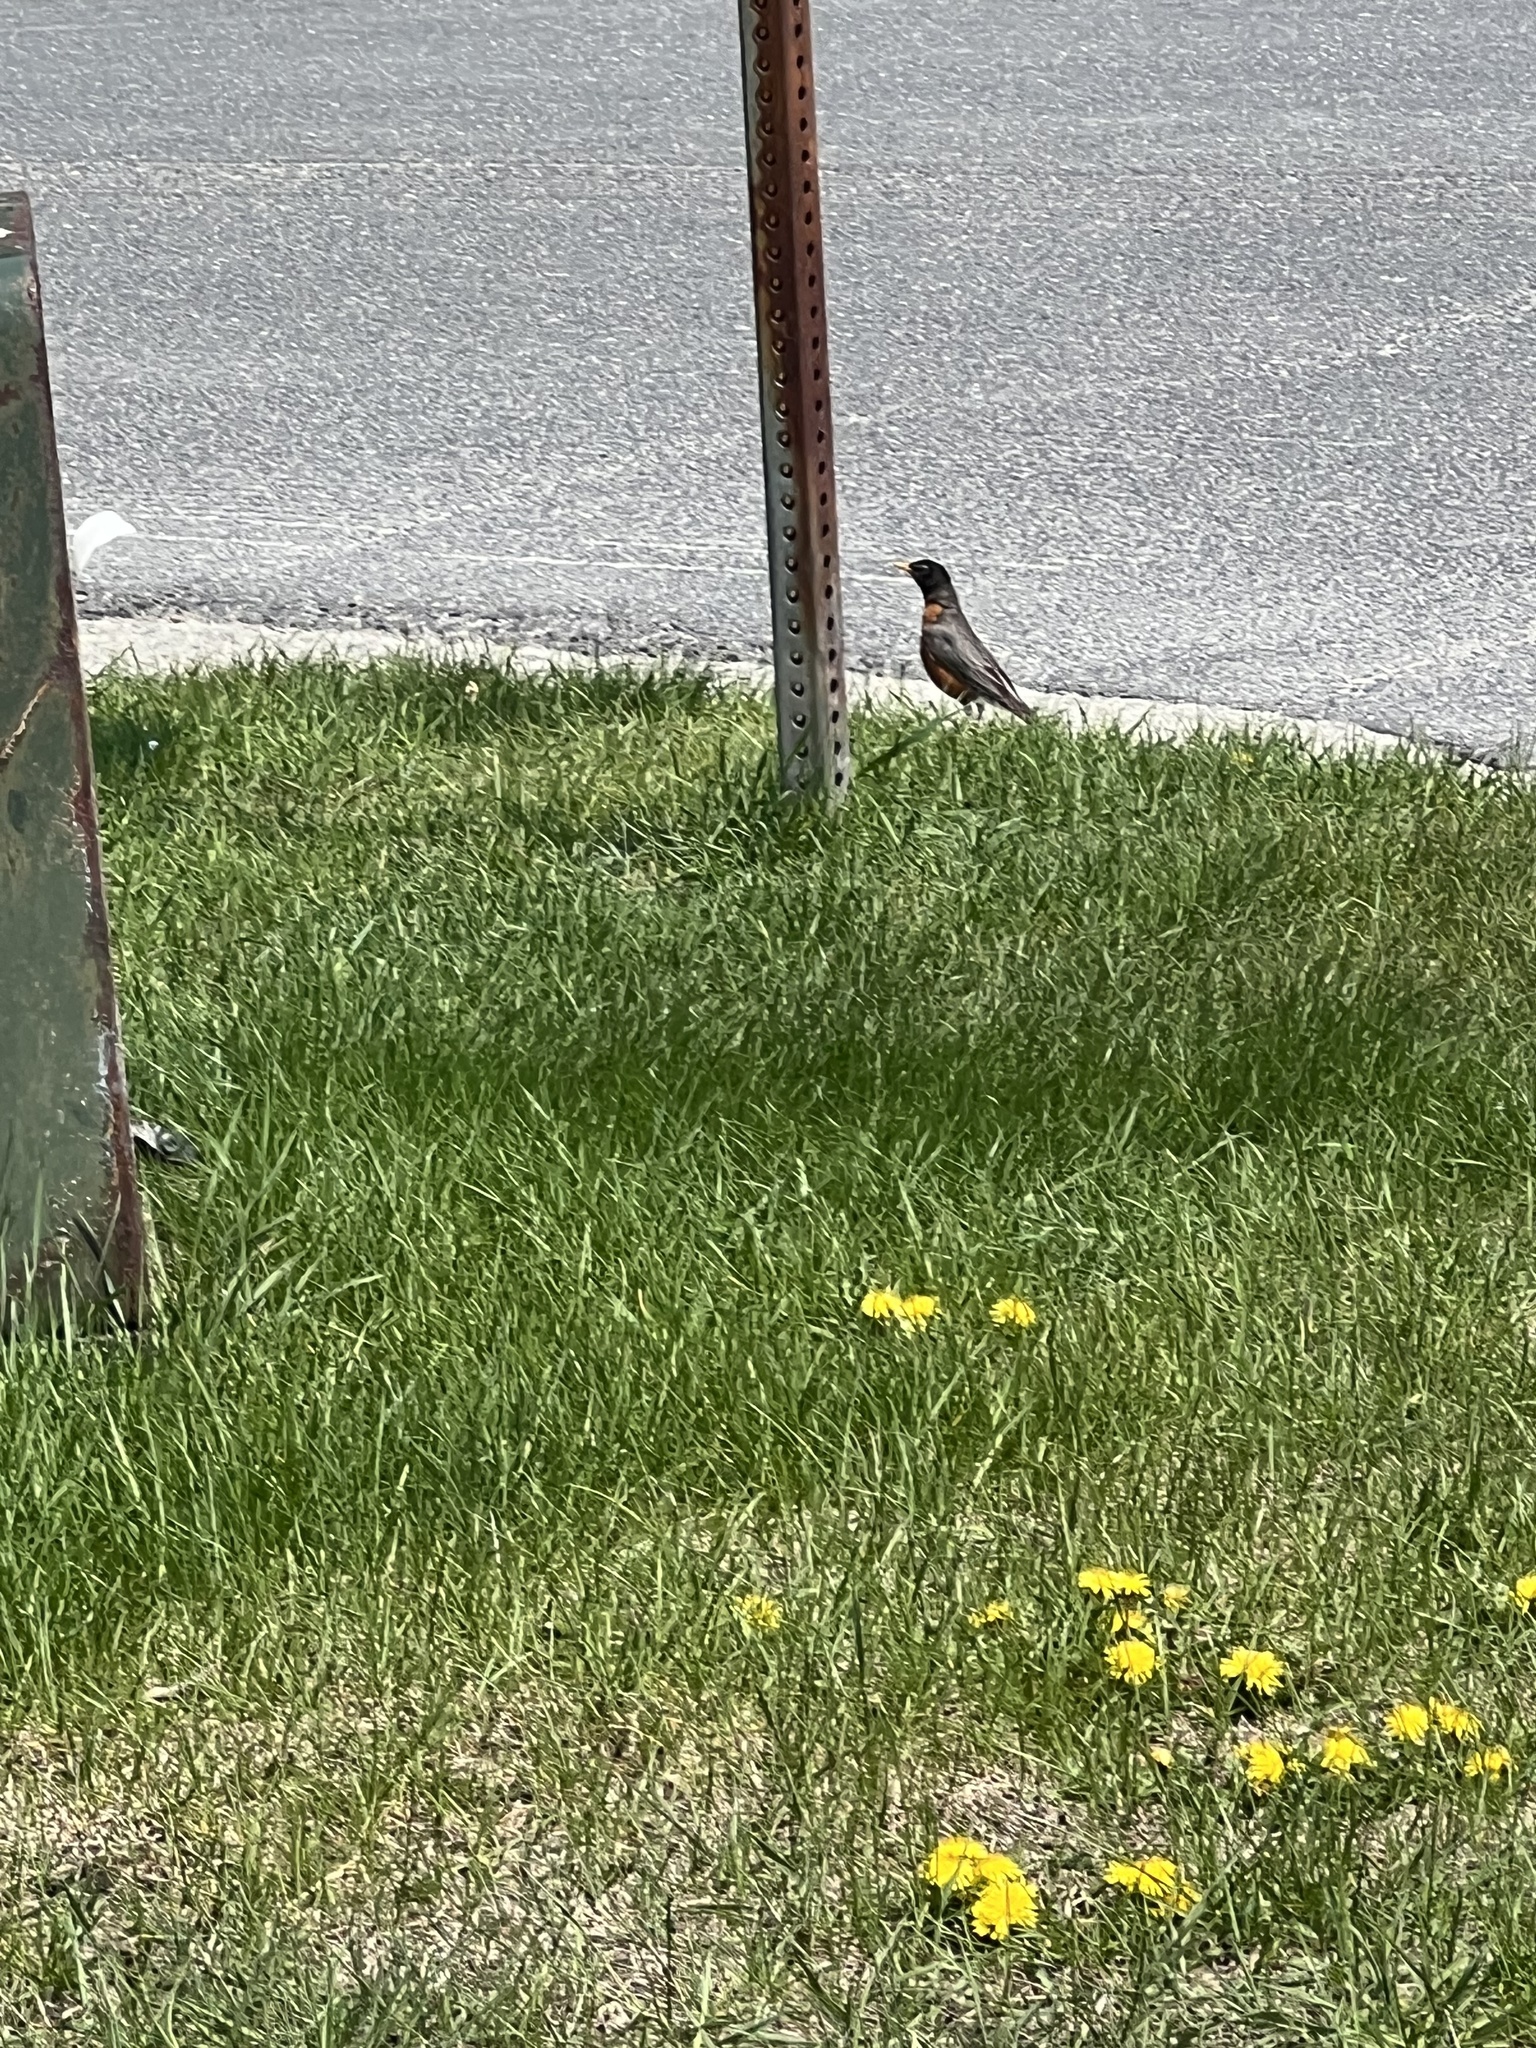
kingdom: Animalia
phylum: Chordata
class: Aves
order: Passeriformes
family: Turdidae
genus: Turdus
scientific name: Turdus migratorius
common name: American robin
